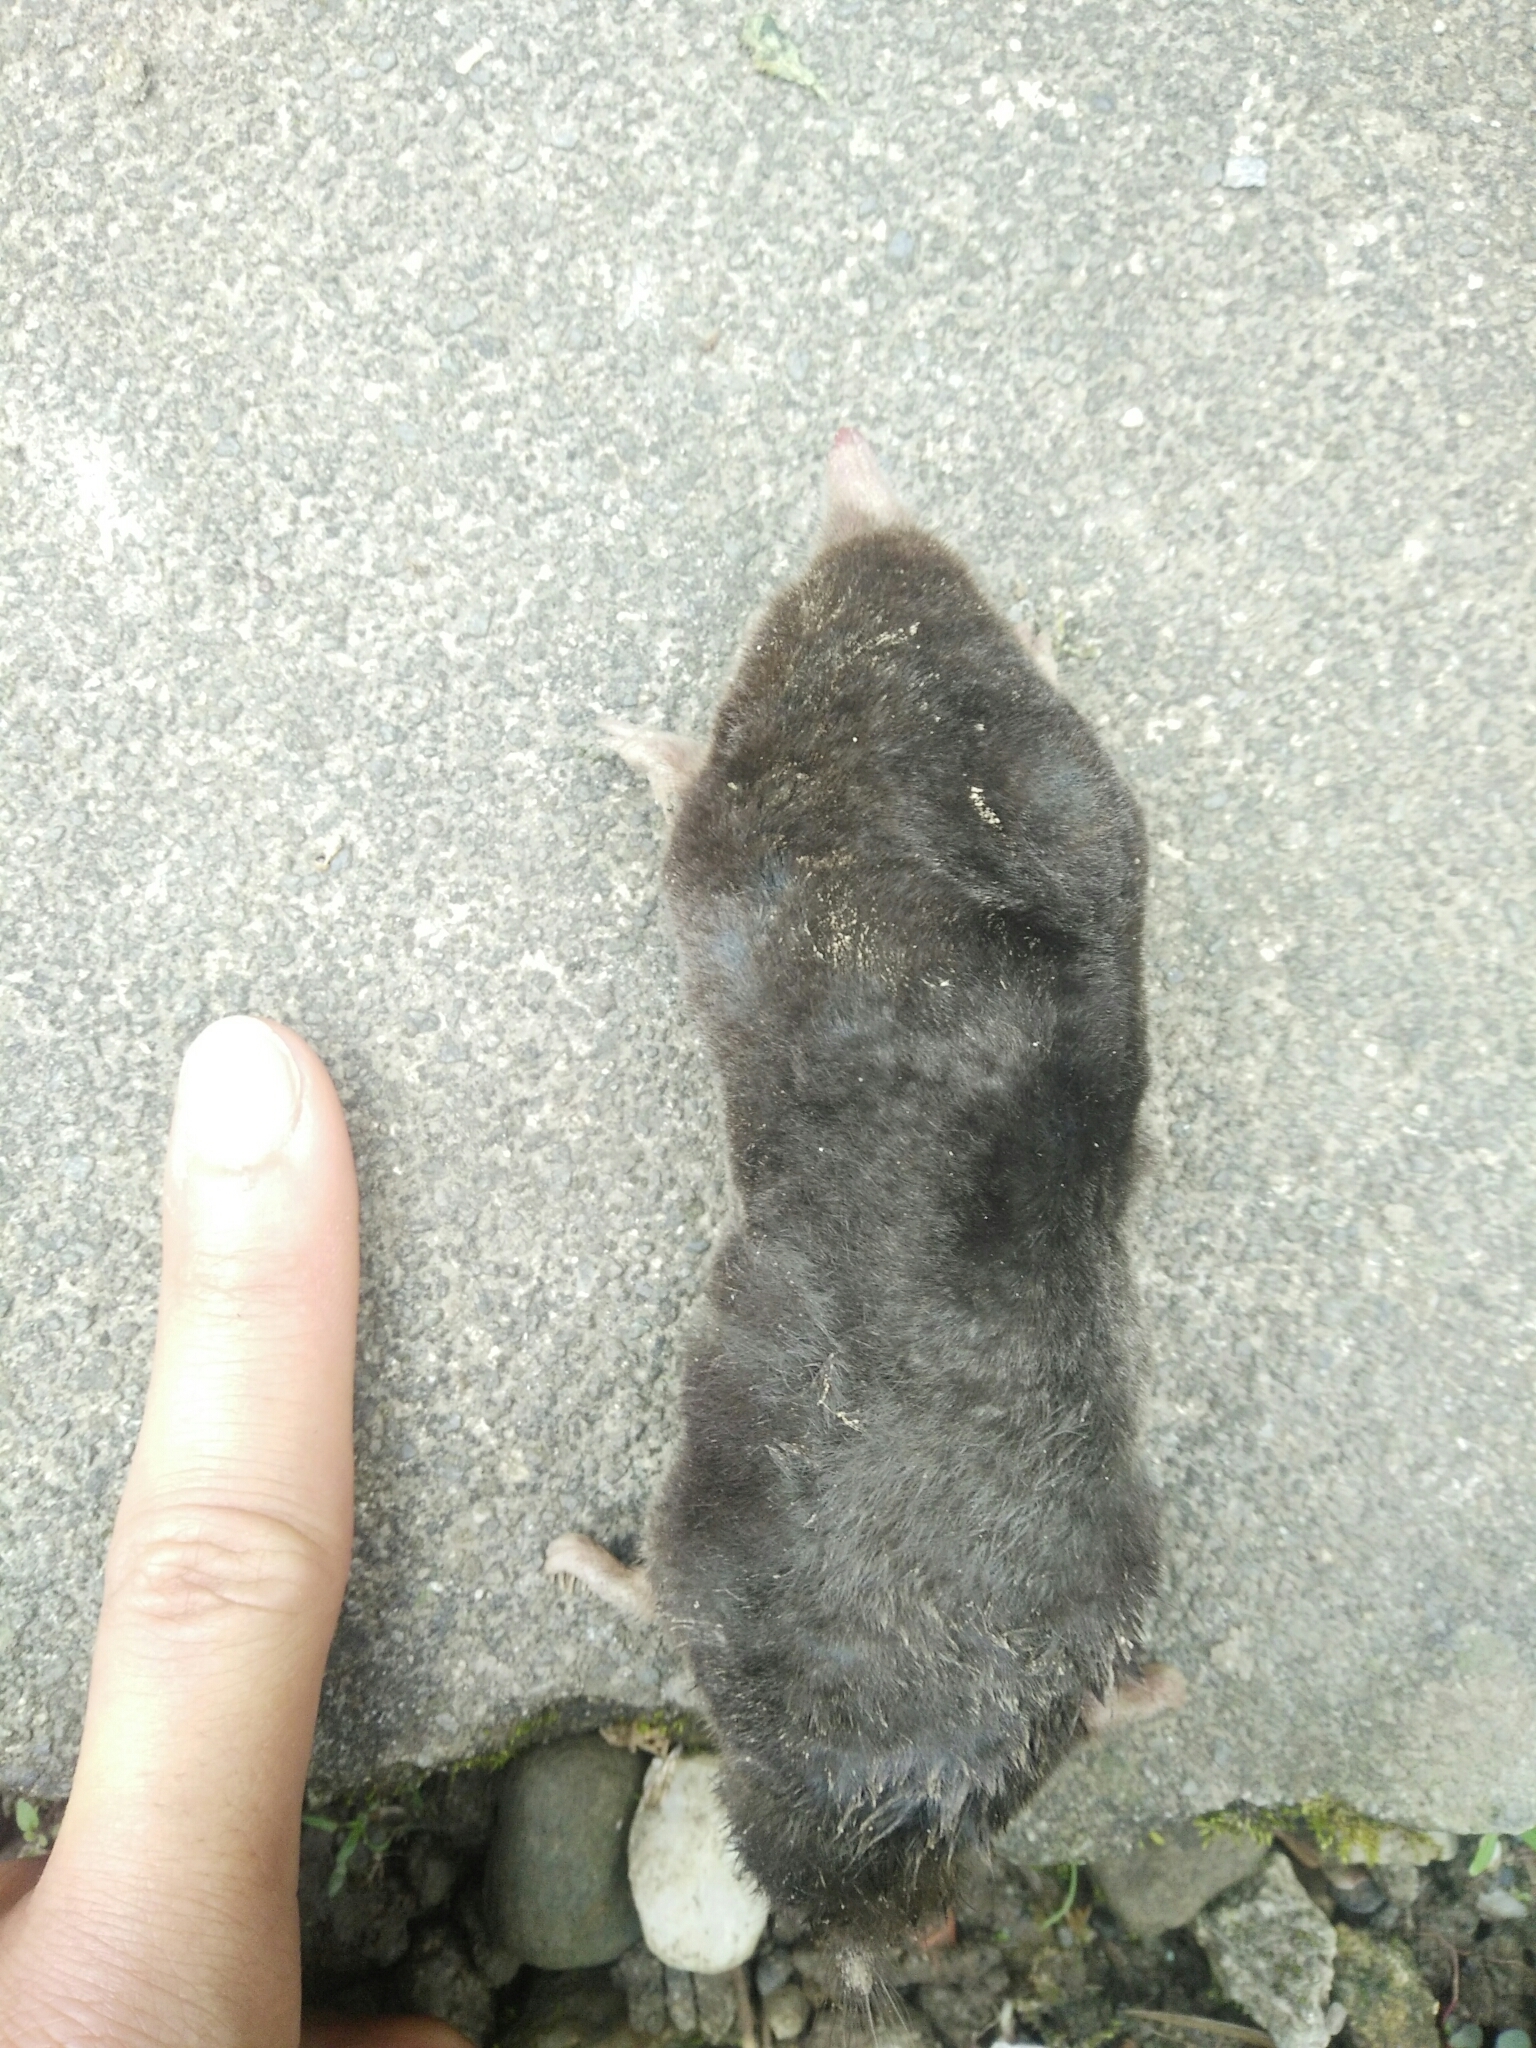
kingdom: Animalia
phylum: Chordata
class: Mammalia
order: Soricomorpha
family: Talpidae
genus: Mogera
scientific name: Mogera kanoana
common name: Kano’s mole
